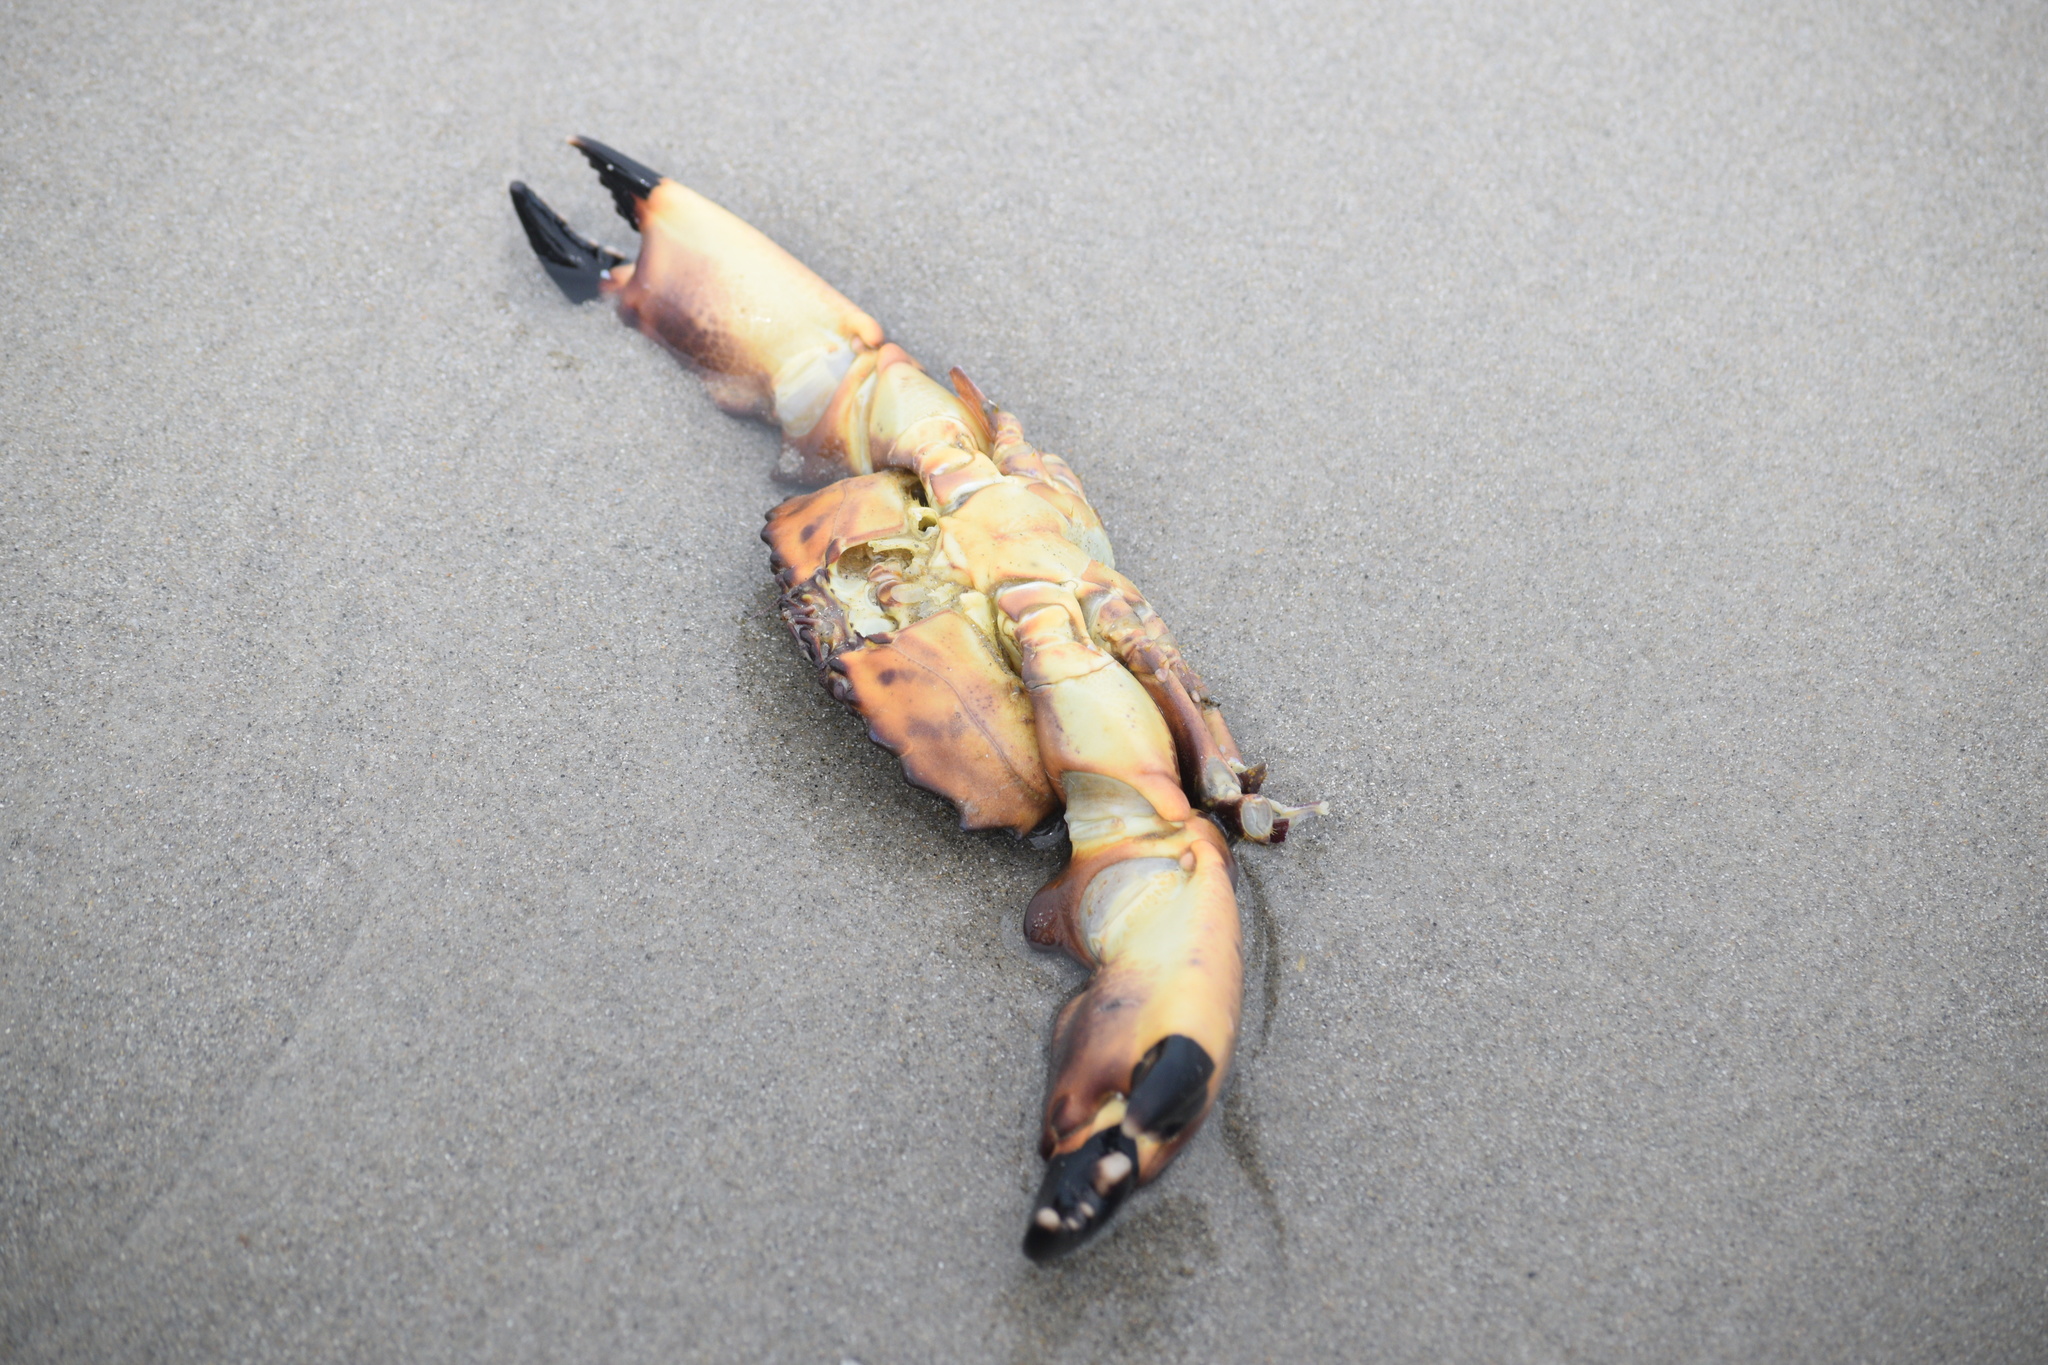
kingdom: Animalia
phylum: Arthropoda
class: Malacostraca
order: Decapoda
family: Menippidae
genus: Menippe
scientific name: Menippe mercenaria
